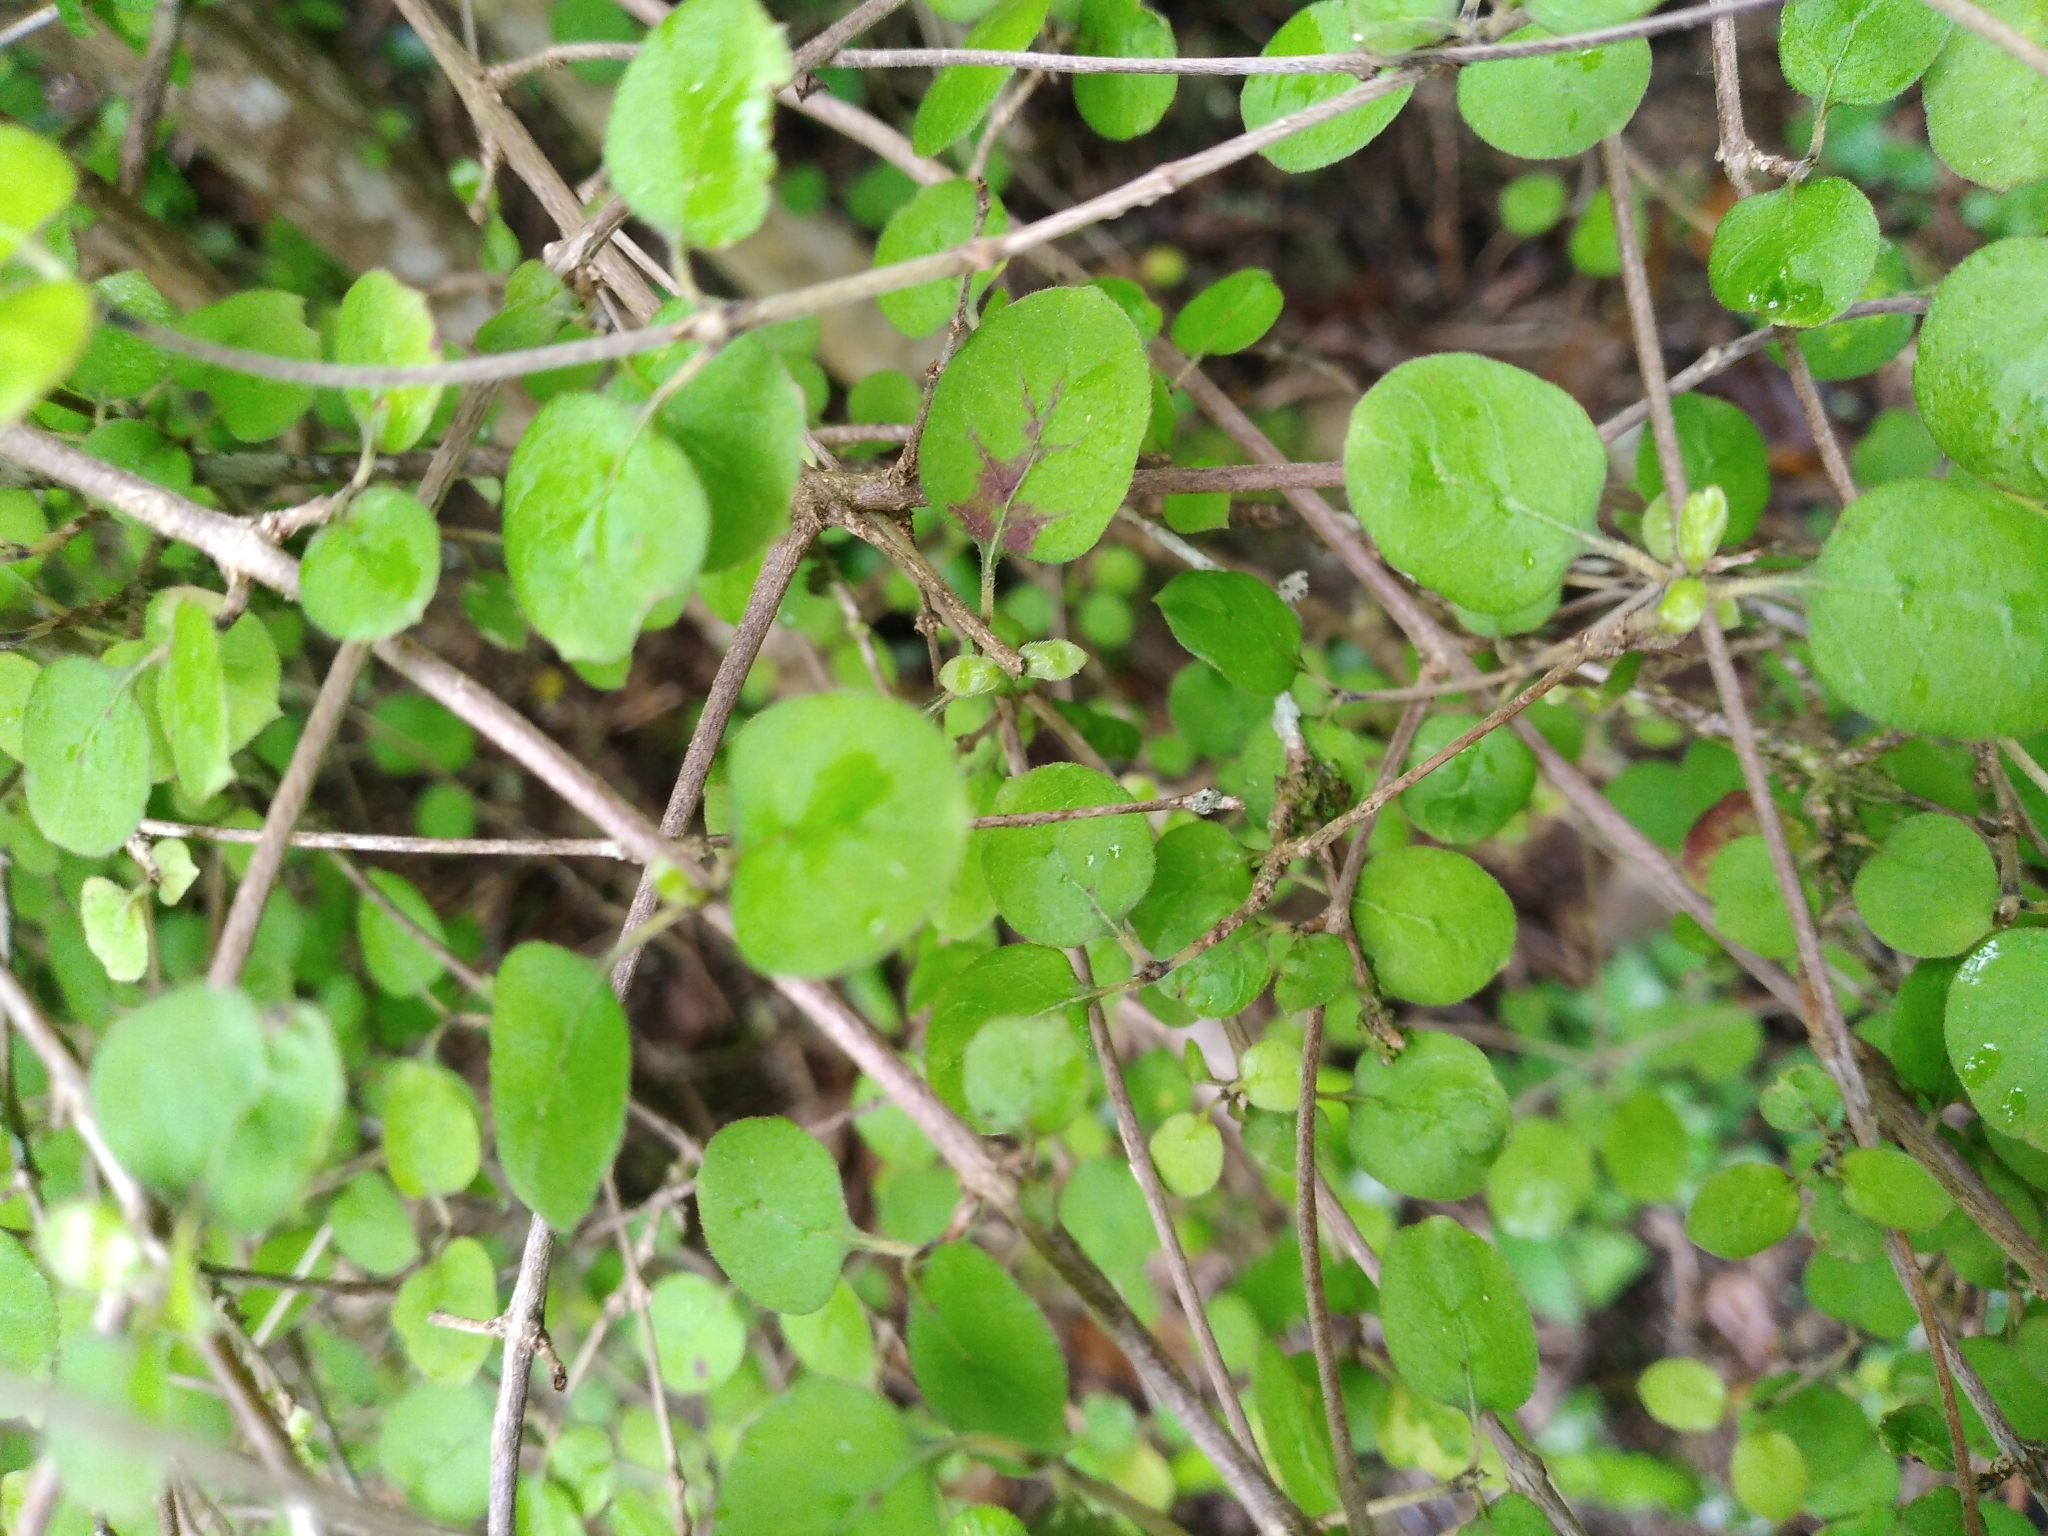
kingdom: Plantae
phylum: Tracheophyta
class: Magnoliopsida
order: Gentianales
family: Rubiaceae
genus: Coprosma
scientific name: Coprosma rotundifolia
